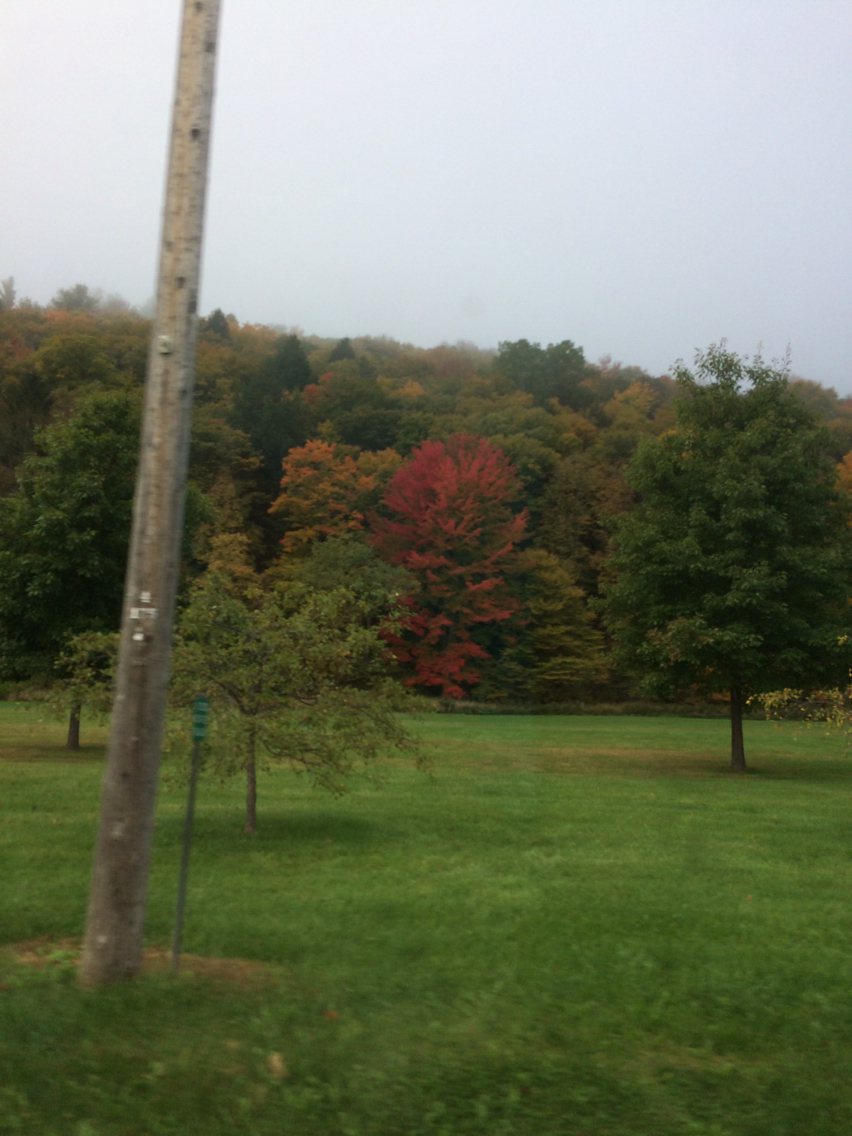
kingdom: Plantae
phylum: Tracheophyta
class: Magnoliopsida
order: Sapindales
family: Sapindaceae
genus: Acer
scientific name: Acer rubrum
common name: Red maple
